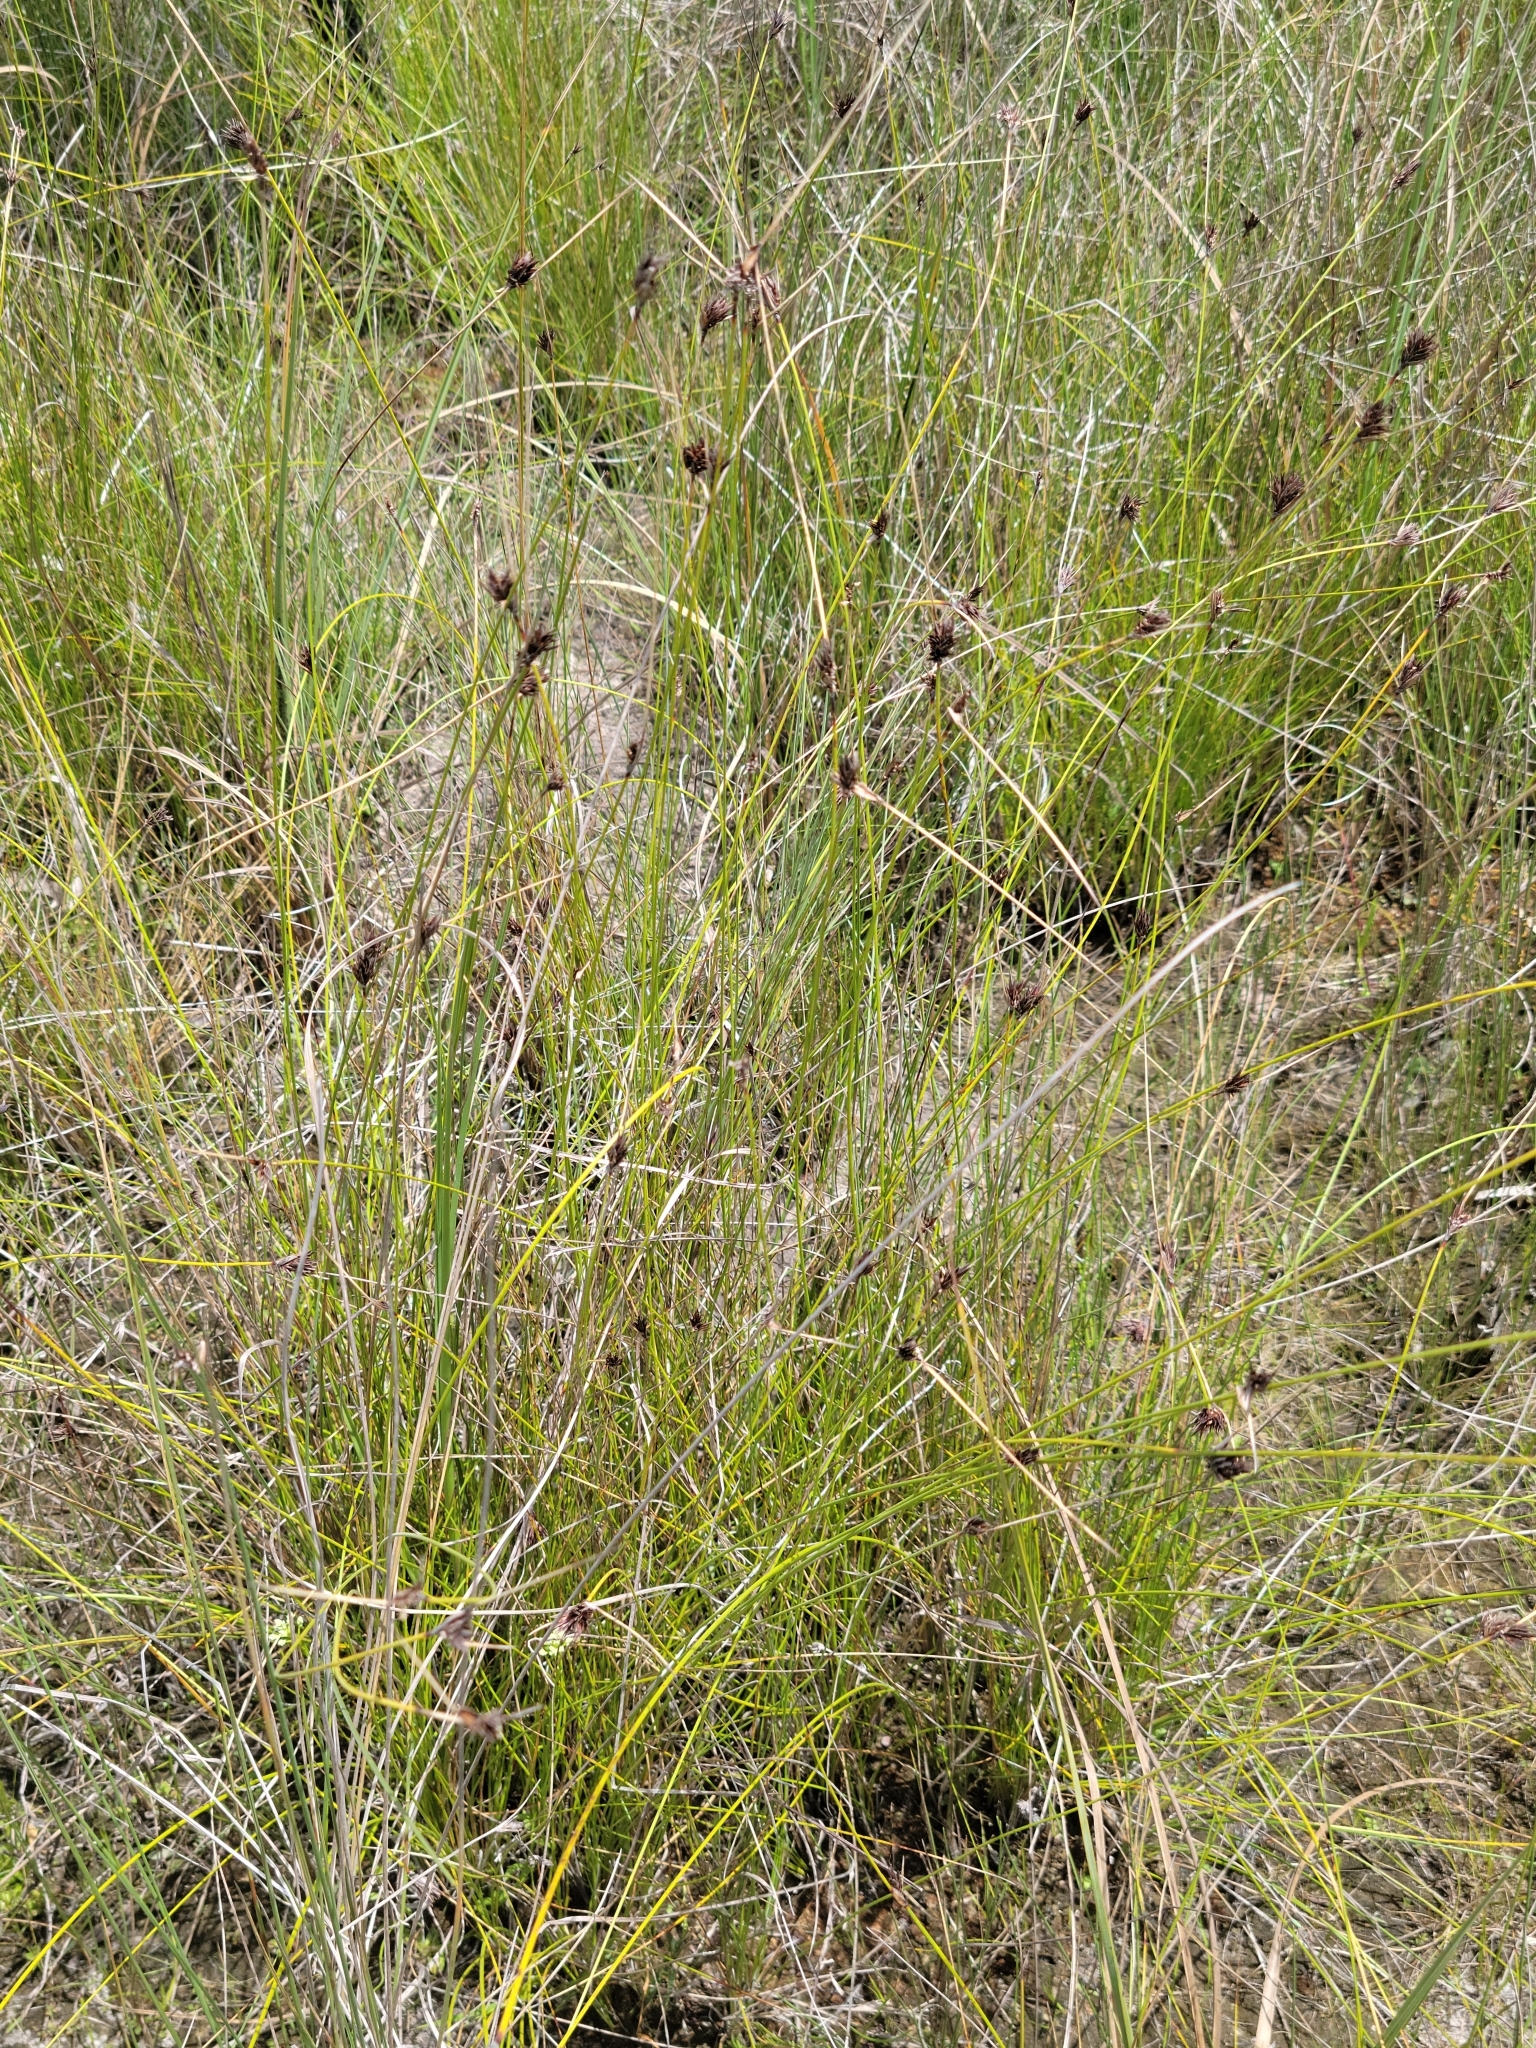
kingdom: Plantae
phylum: Tracheophyta
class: Liliopsida
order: Poales
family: Cyperaceae
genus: Schoenus
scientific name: Schoenus nigricans
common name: Black bog-rush
